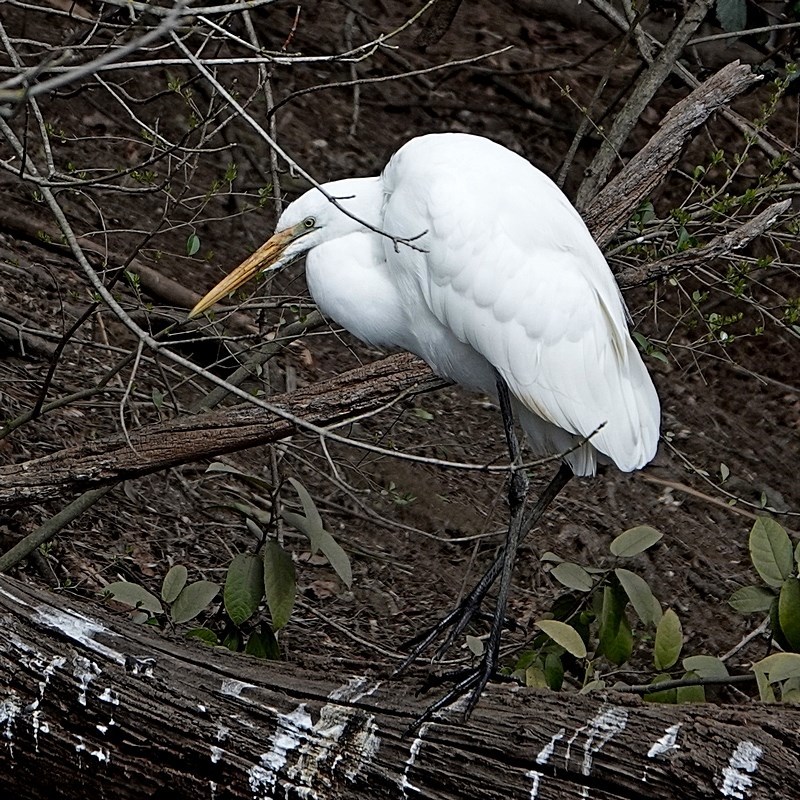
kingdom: Animalia
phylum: Chordata
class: Aves
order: Pelecaniformes
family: Ardeidae
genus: Ardea
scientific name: Ardea alba
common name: Great egret
